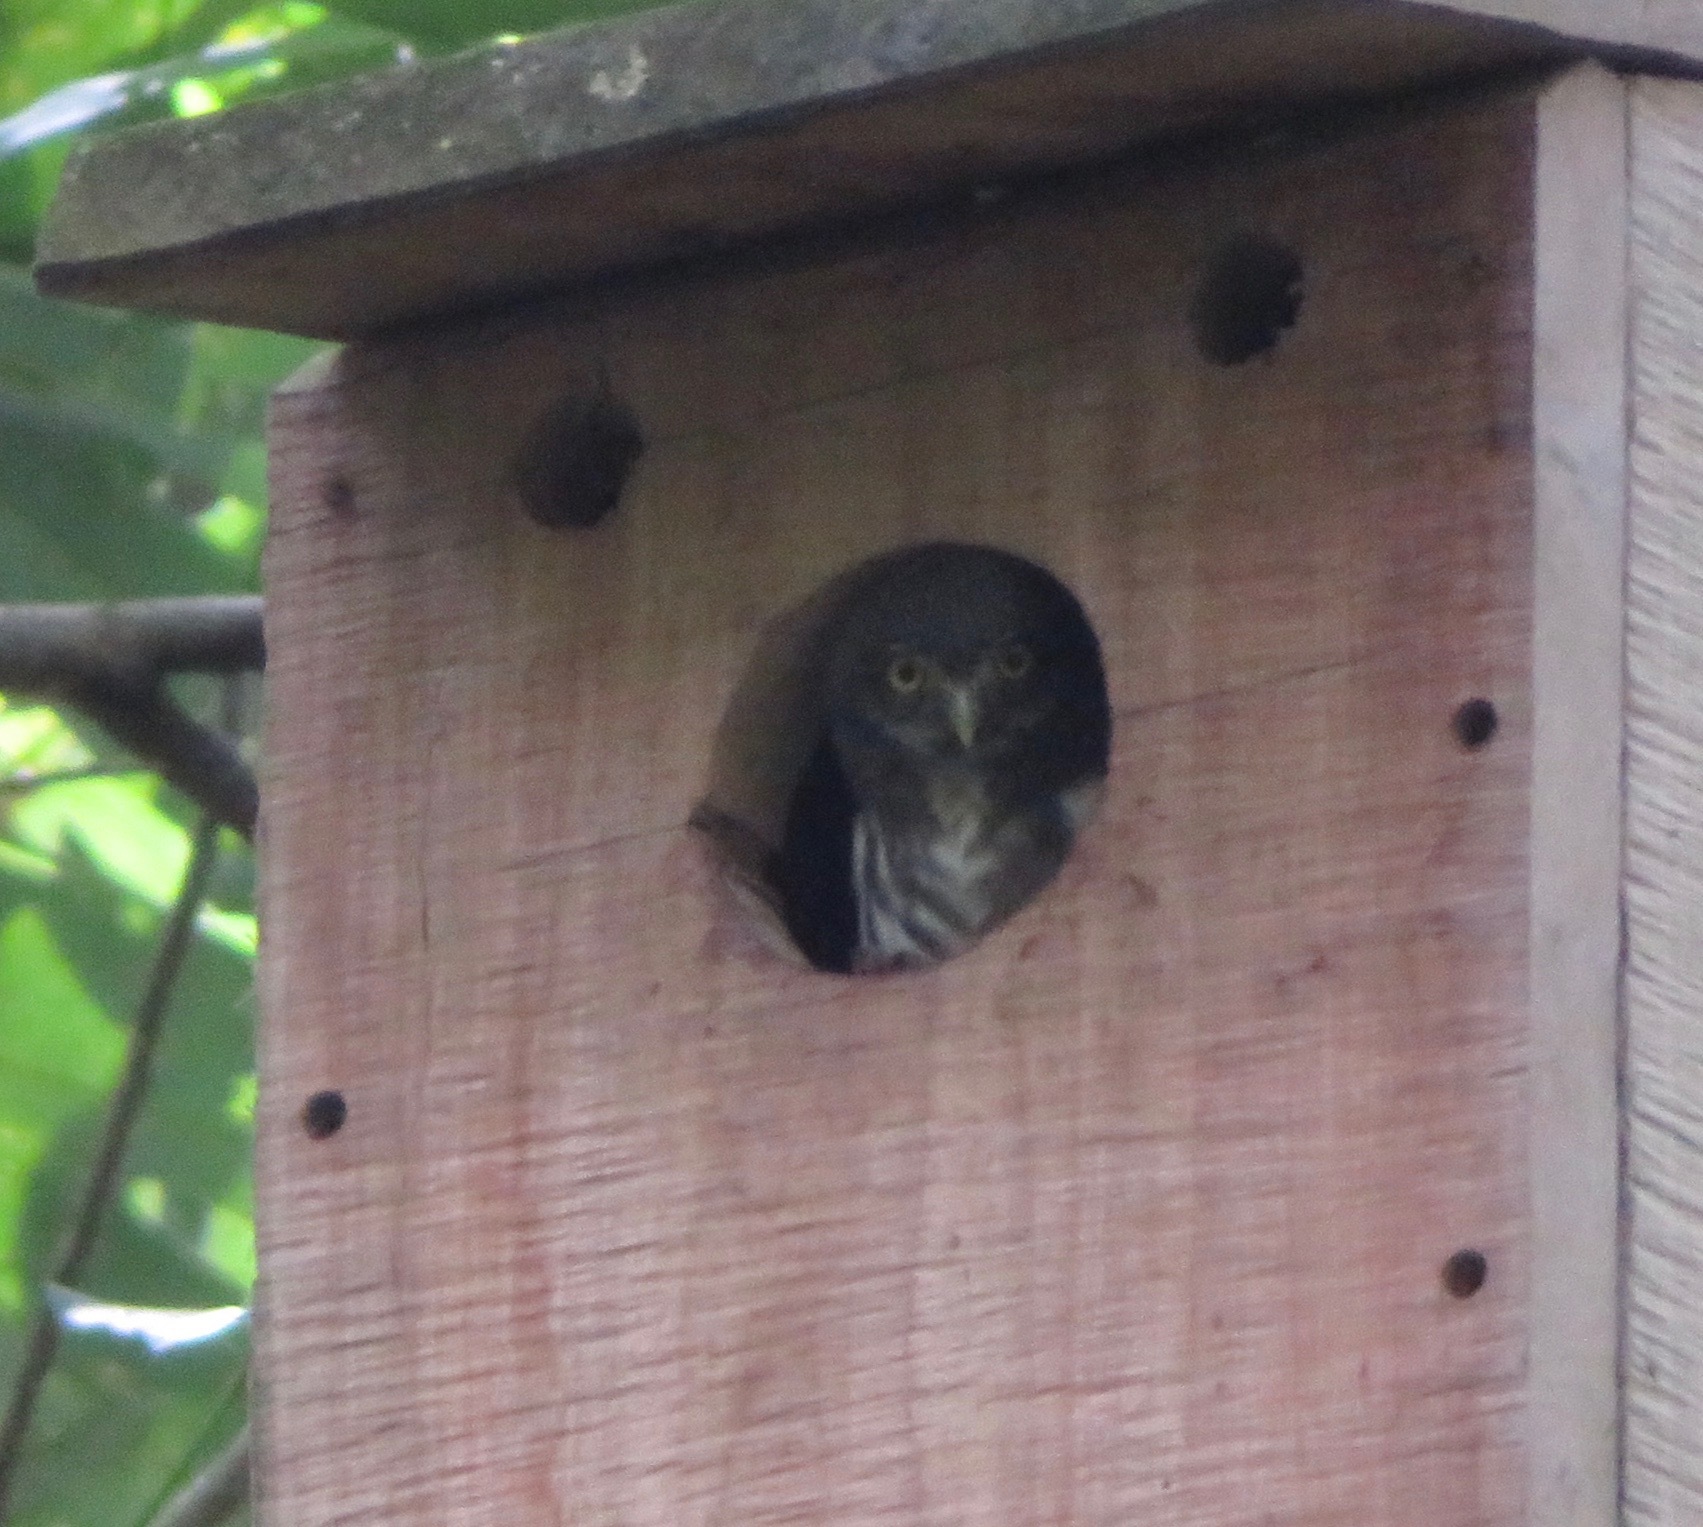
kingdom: Animalia
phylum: Chordata
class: Aves
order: Strigiformes
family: Strigidae
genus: Glaucidium
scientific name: Glaucidium brasilianum
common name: Ferruginous pygmy-owl
